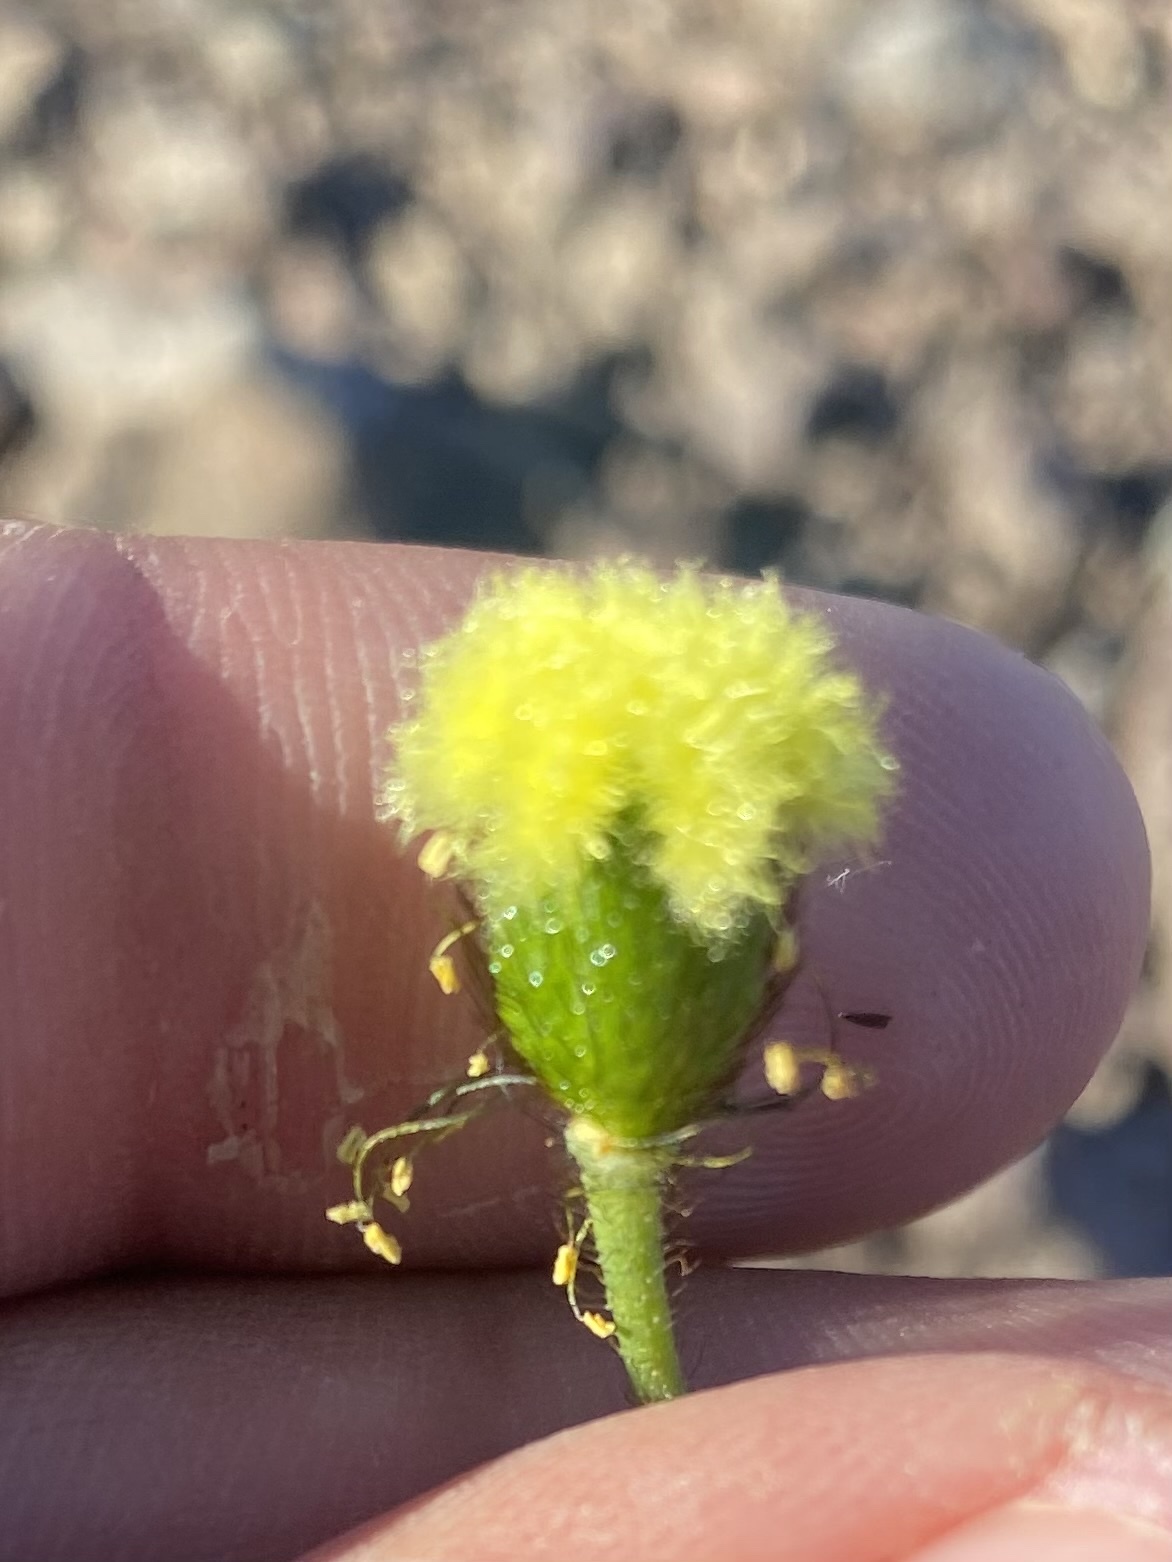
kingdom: Plantae
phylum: Tracheophyta
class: Magnoliopsida
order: Ranunculales
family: Papaveraceae
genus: Papaver
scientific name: Papaver pulvinatum
